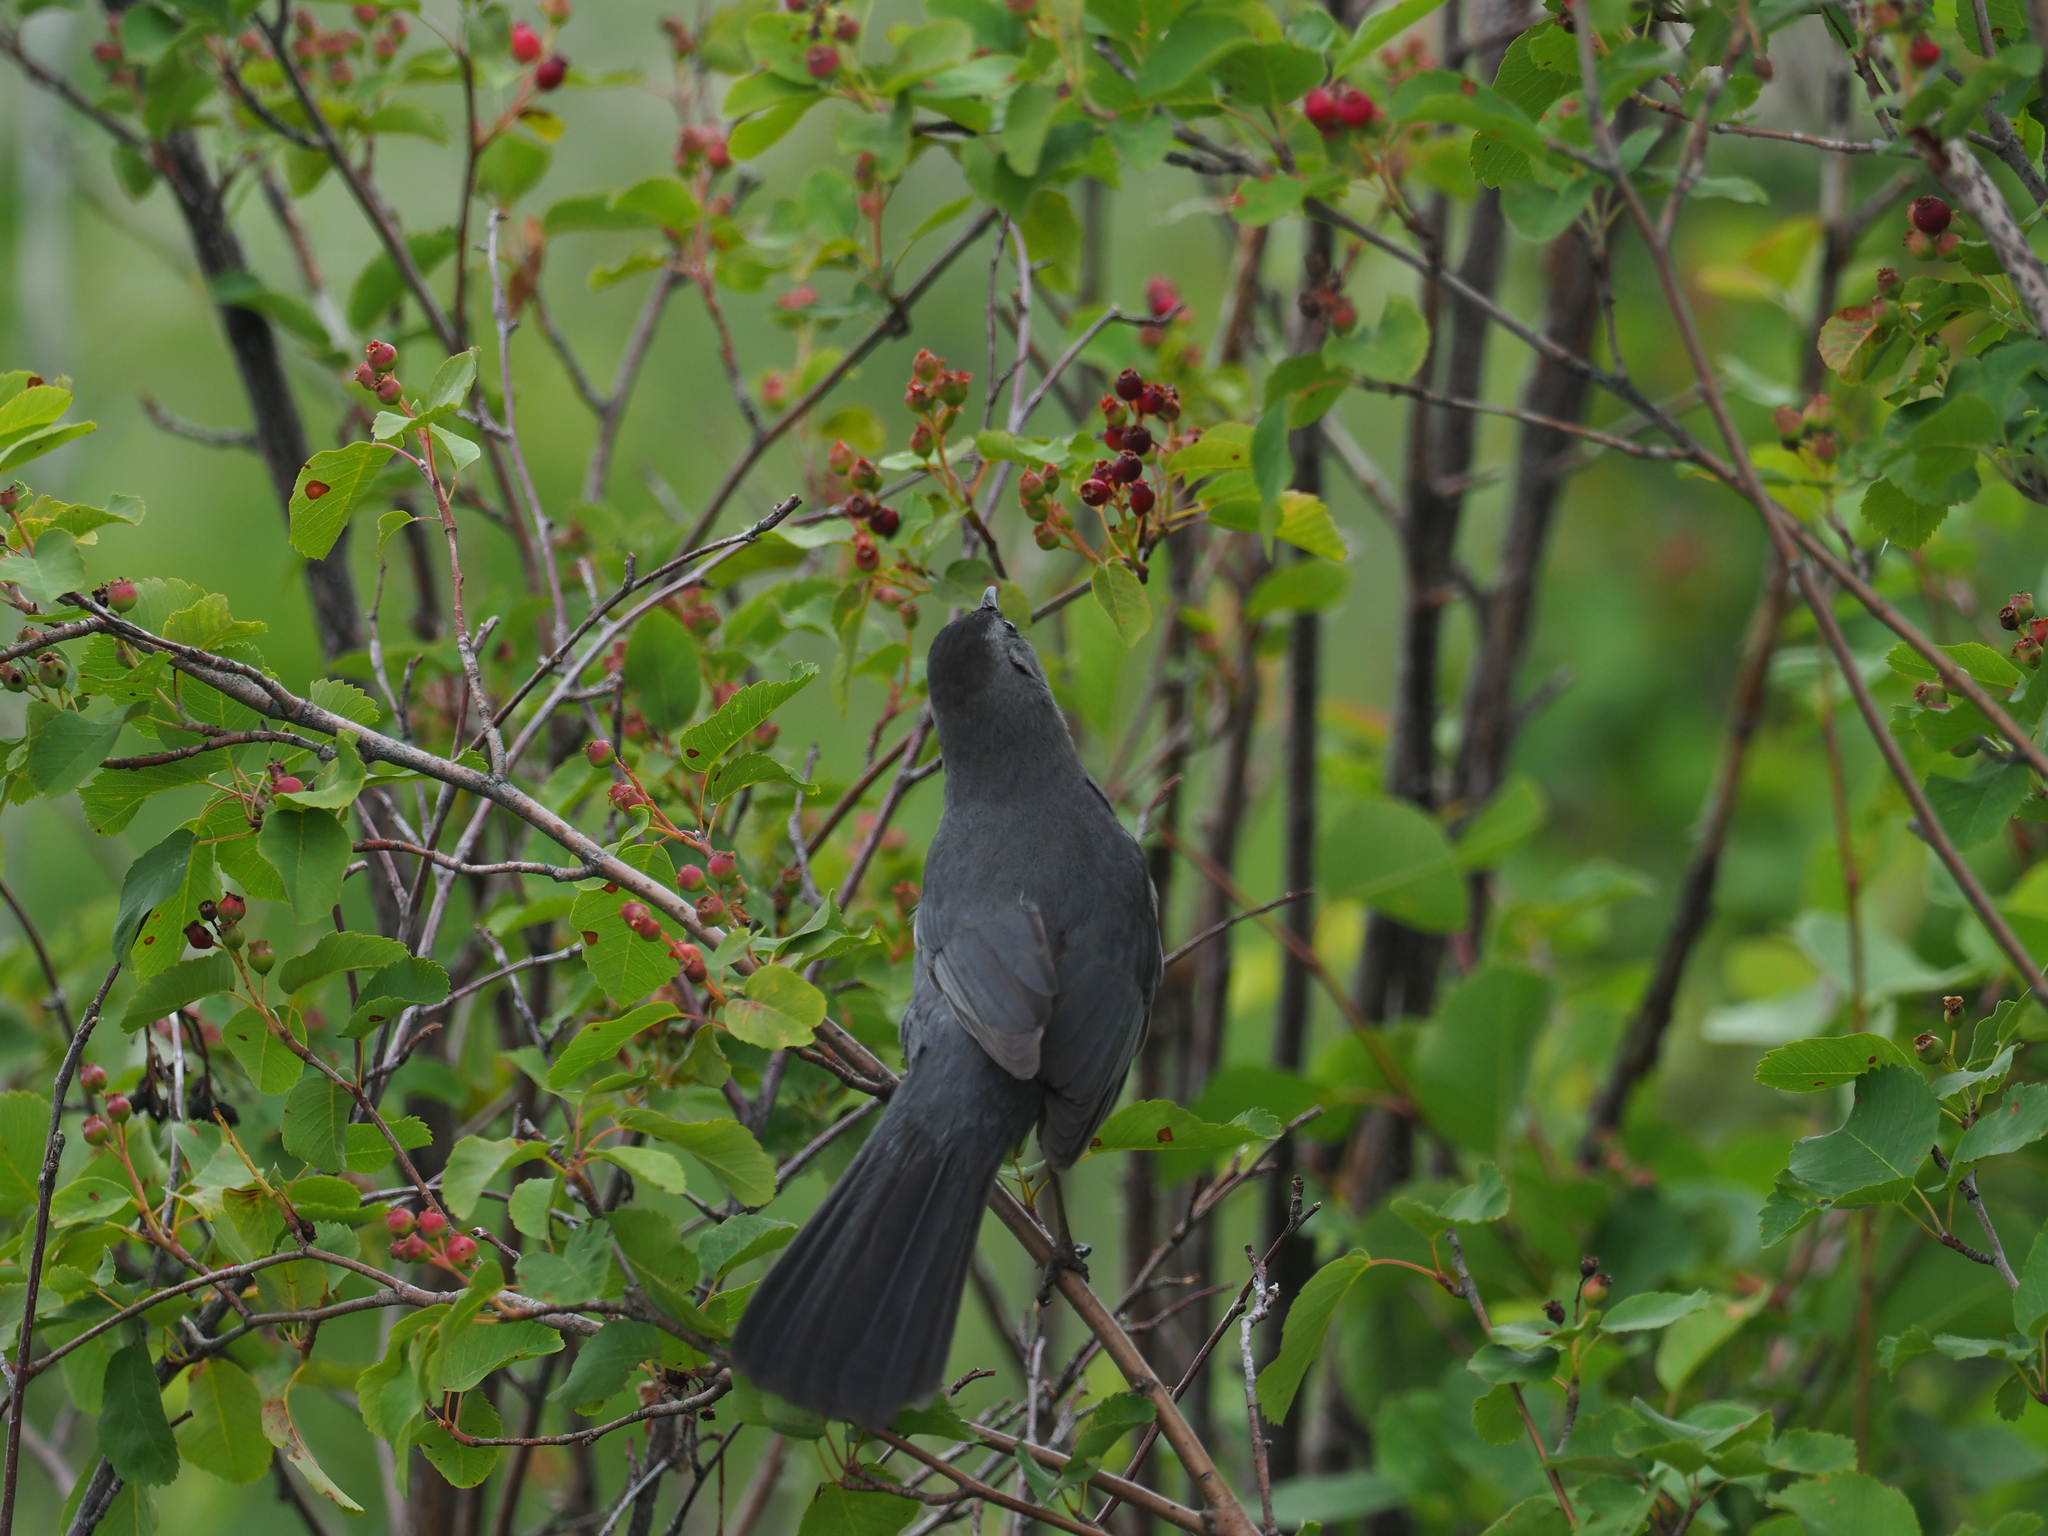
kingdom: Animalia
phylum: Chordata
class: Aves
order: Passeriformes
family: Mimidae
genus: Dumetella
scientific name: Dumetella carolinensis
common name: Gray catbird
